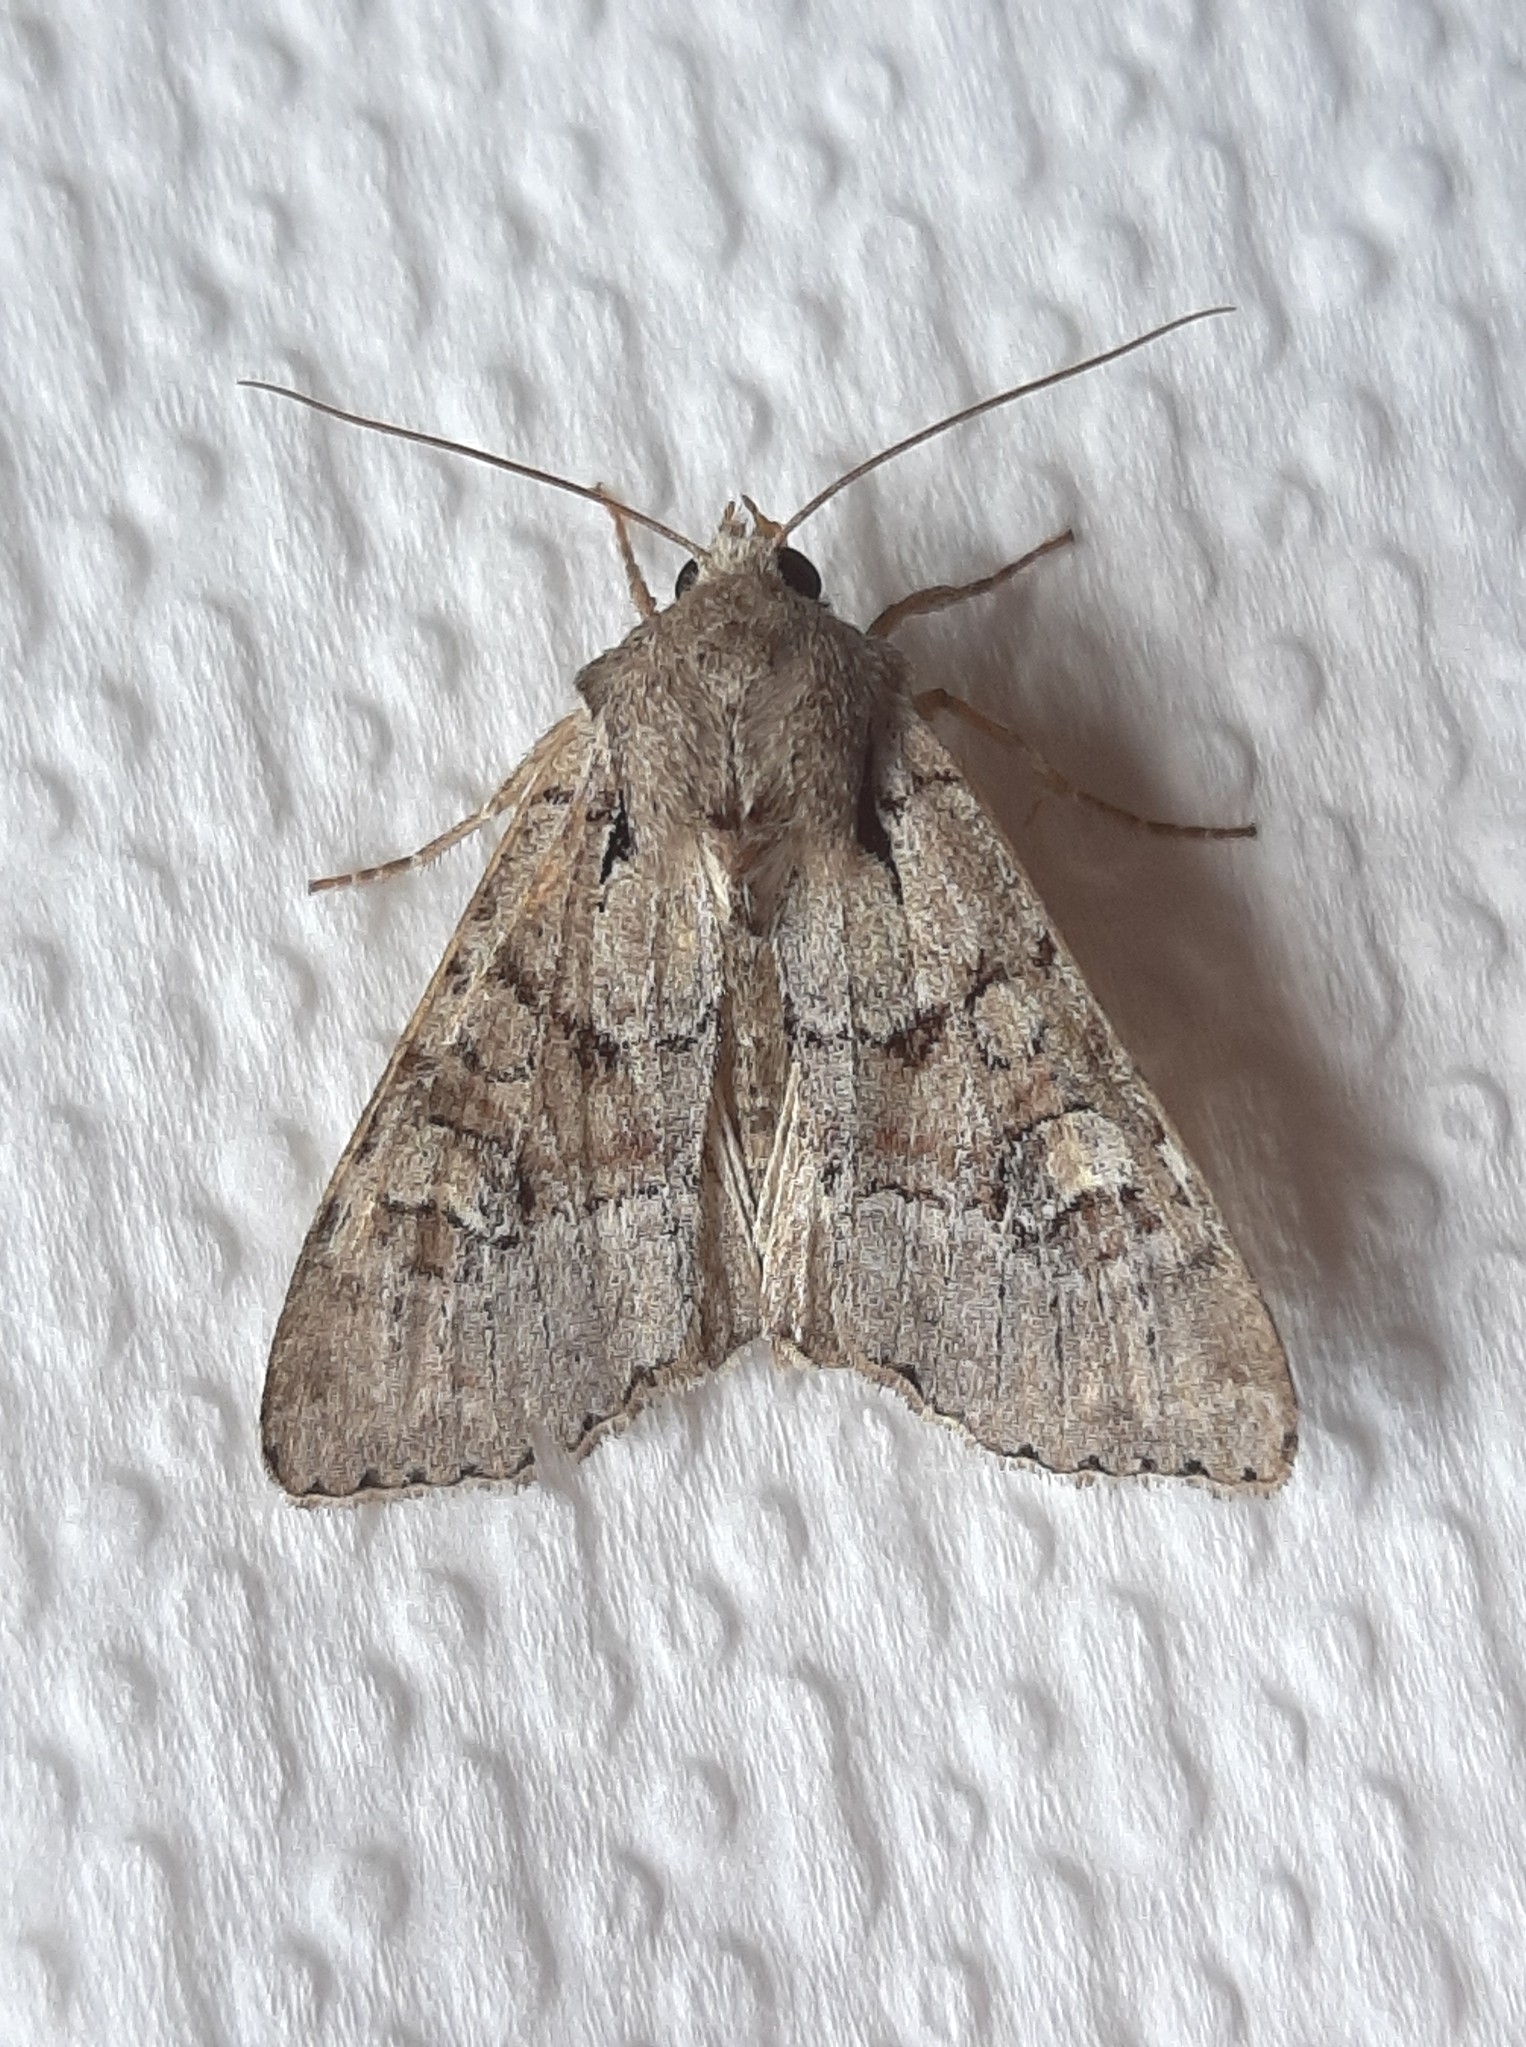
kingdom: Animalia
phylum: Arthropoda
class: Insecta
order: Lepidoptera
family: Noctuidae
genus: Apamea
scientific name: Apamea sordens
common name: Rustic shoulder-knot
